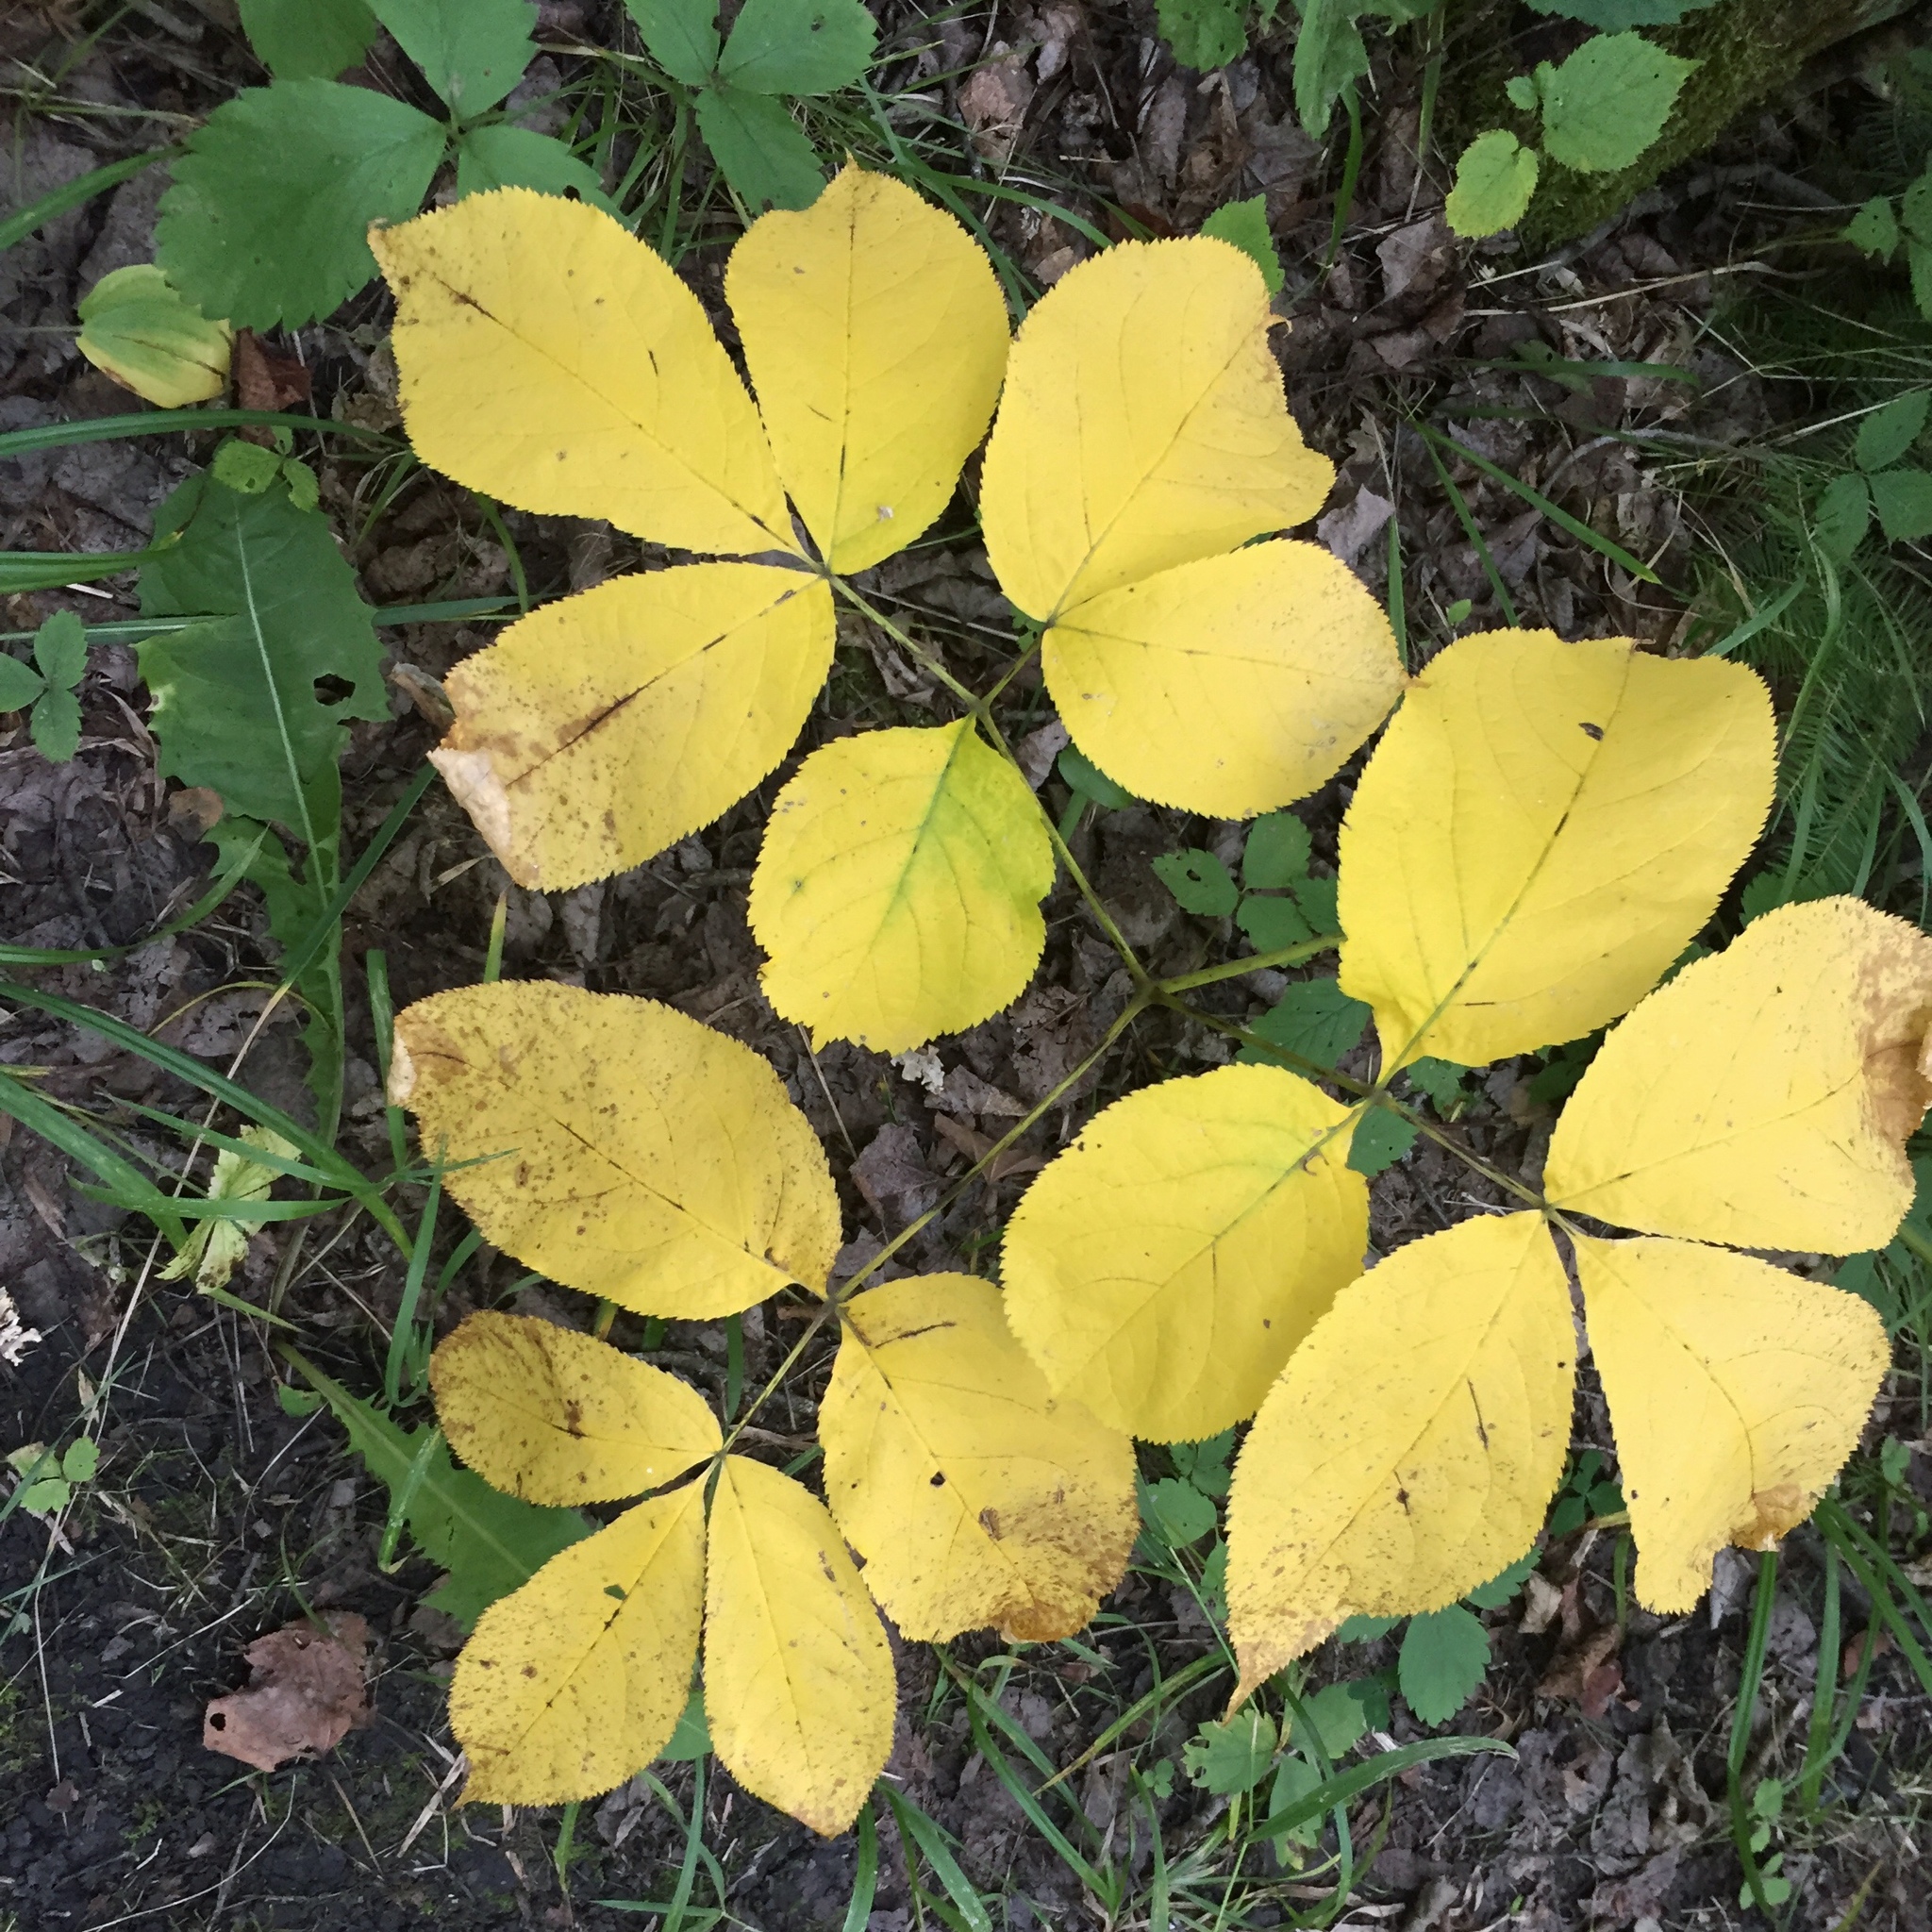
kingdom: Plantae
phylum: Tracheophyta
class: Magnoliopsida
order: Apiales
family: Araliaceae
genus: Aralia
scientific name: Aralia nudicaulis
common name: Wild sarsaparilla
